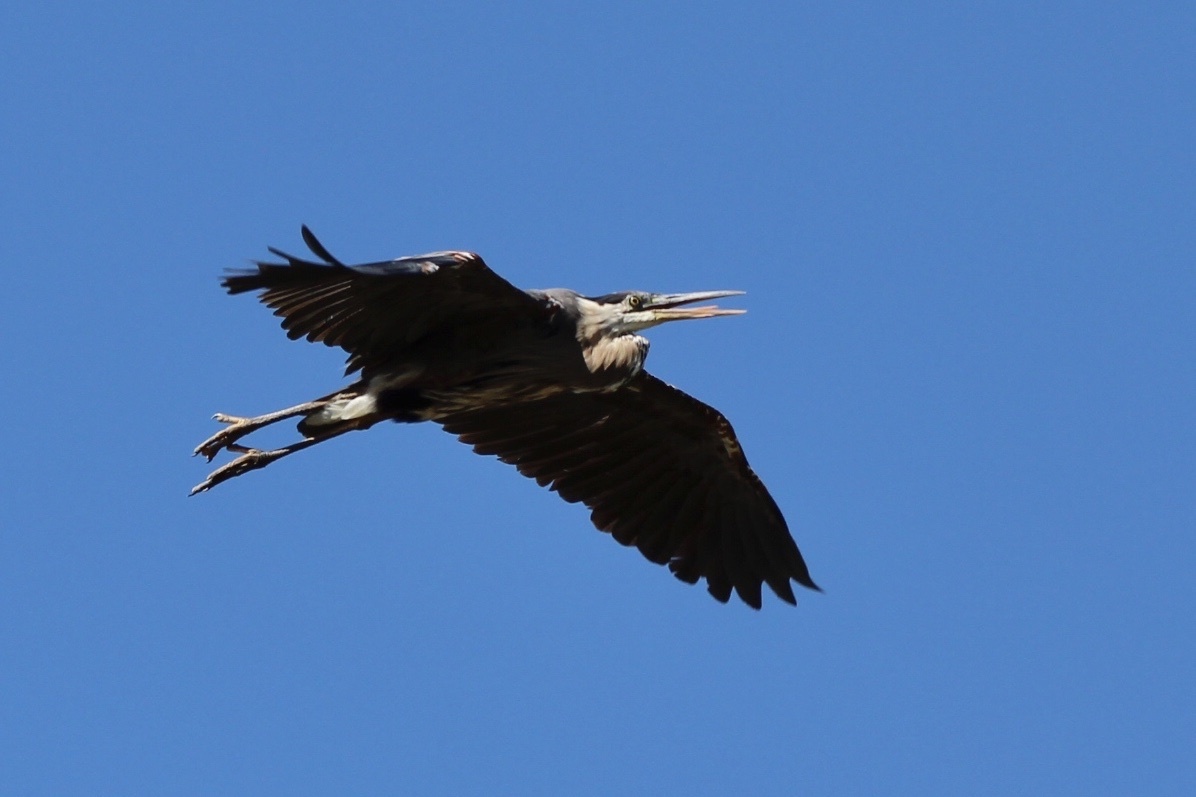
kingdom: Animalia
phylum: Chordata
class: Aves
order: Pelecaniformes
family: Ardeidae
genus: Ardea
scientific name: Ardea herodias
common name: Great blue heron
